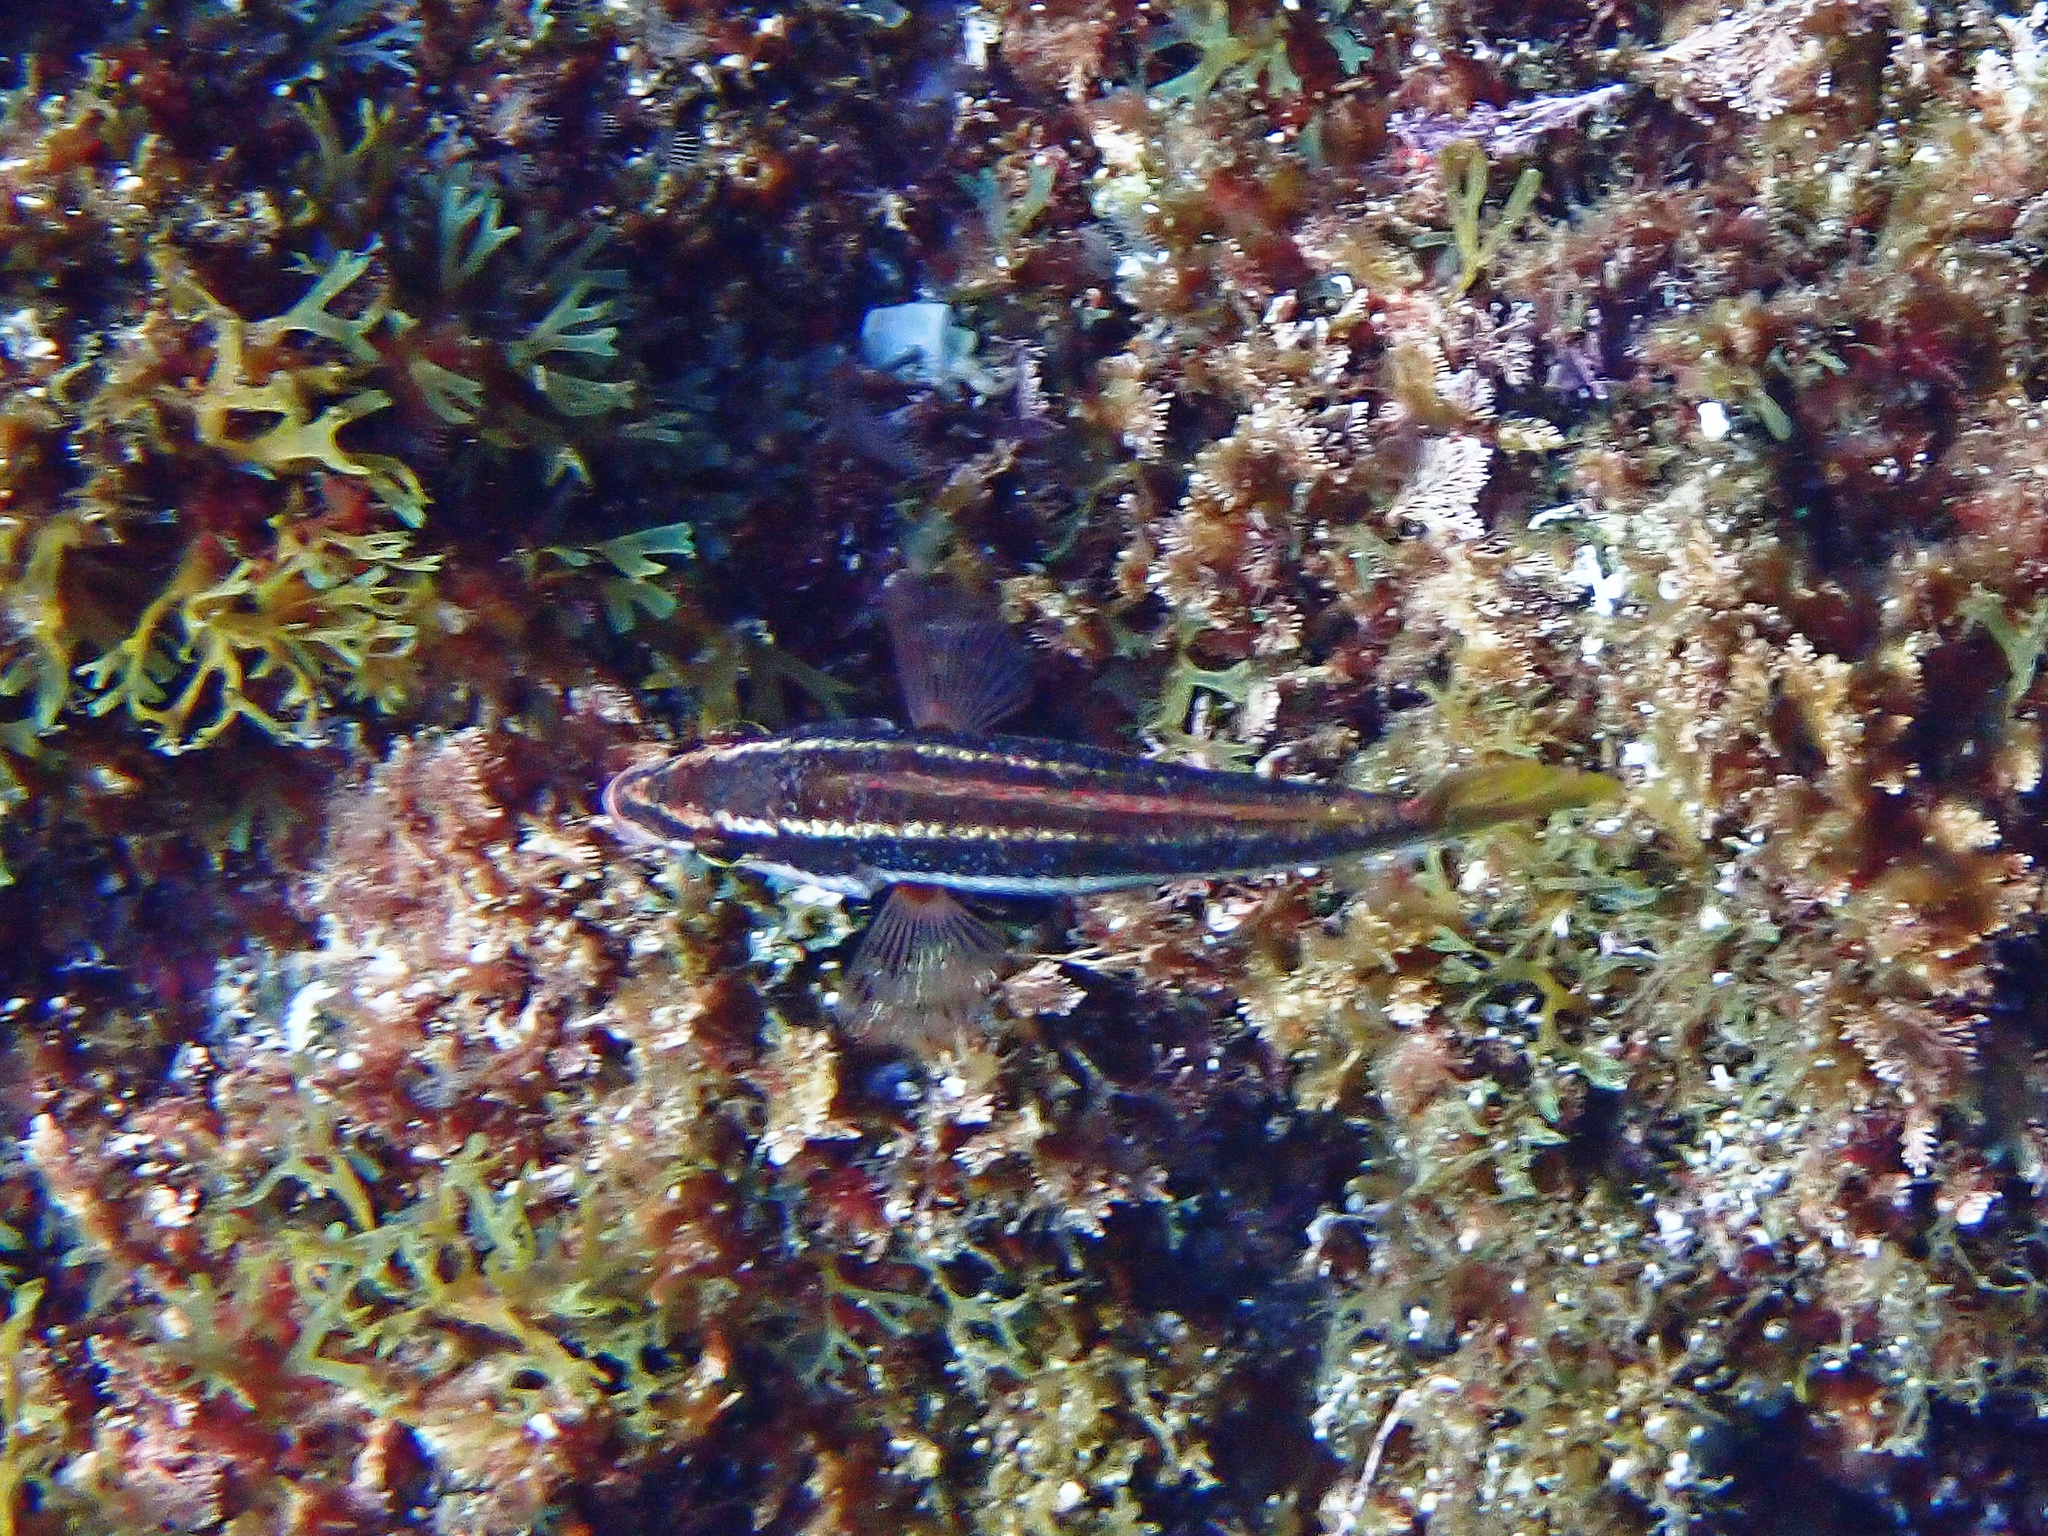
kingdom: Animalia
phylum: Chordata
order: Perciformes
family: Labridae
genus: Symphodus
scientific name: Symphodus doderleini
